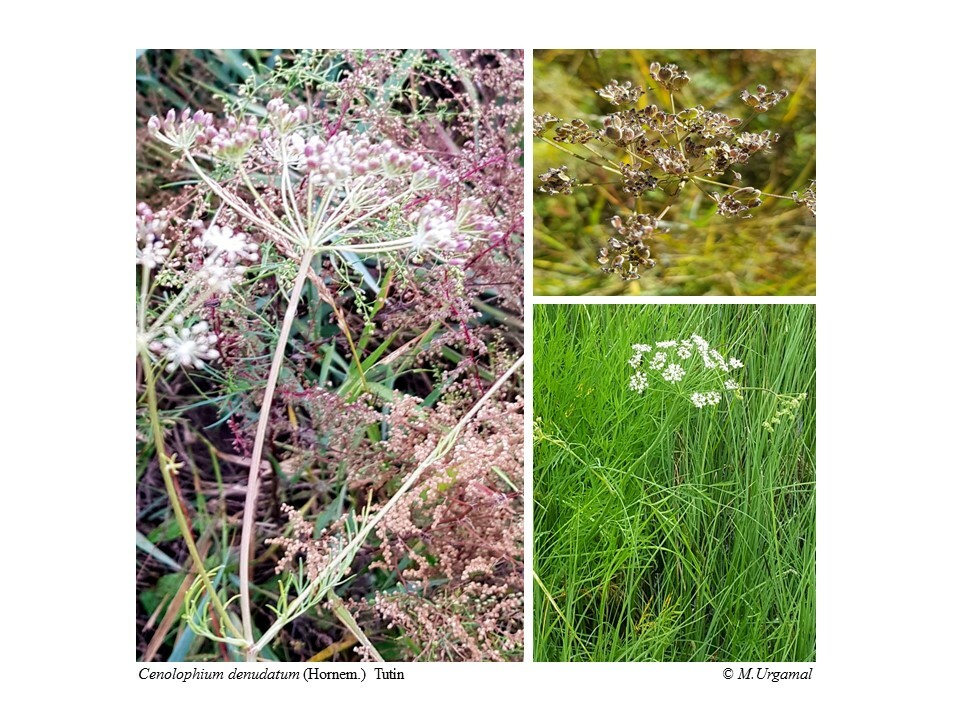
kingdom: Plantae
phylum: Tracheophyta
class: Magnoliopsida
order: Apiales
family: Apiaceae
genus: Cenolophium
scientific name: Cenolophium fischeri
